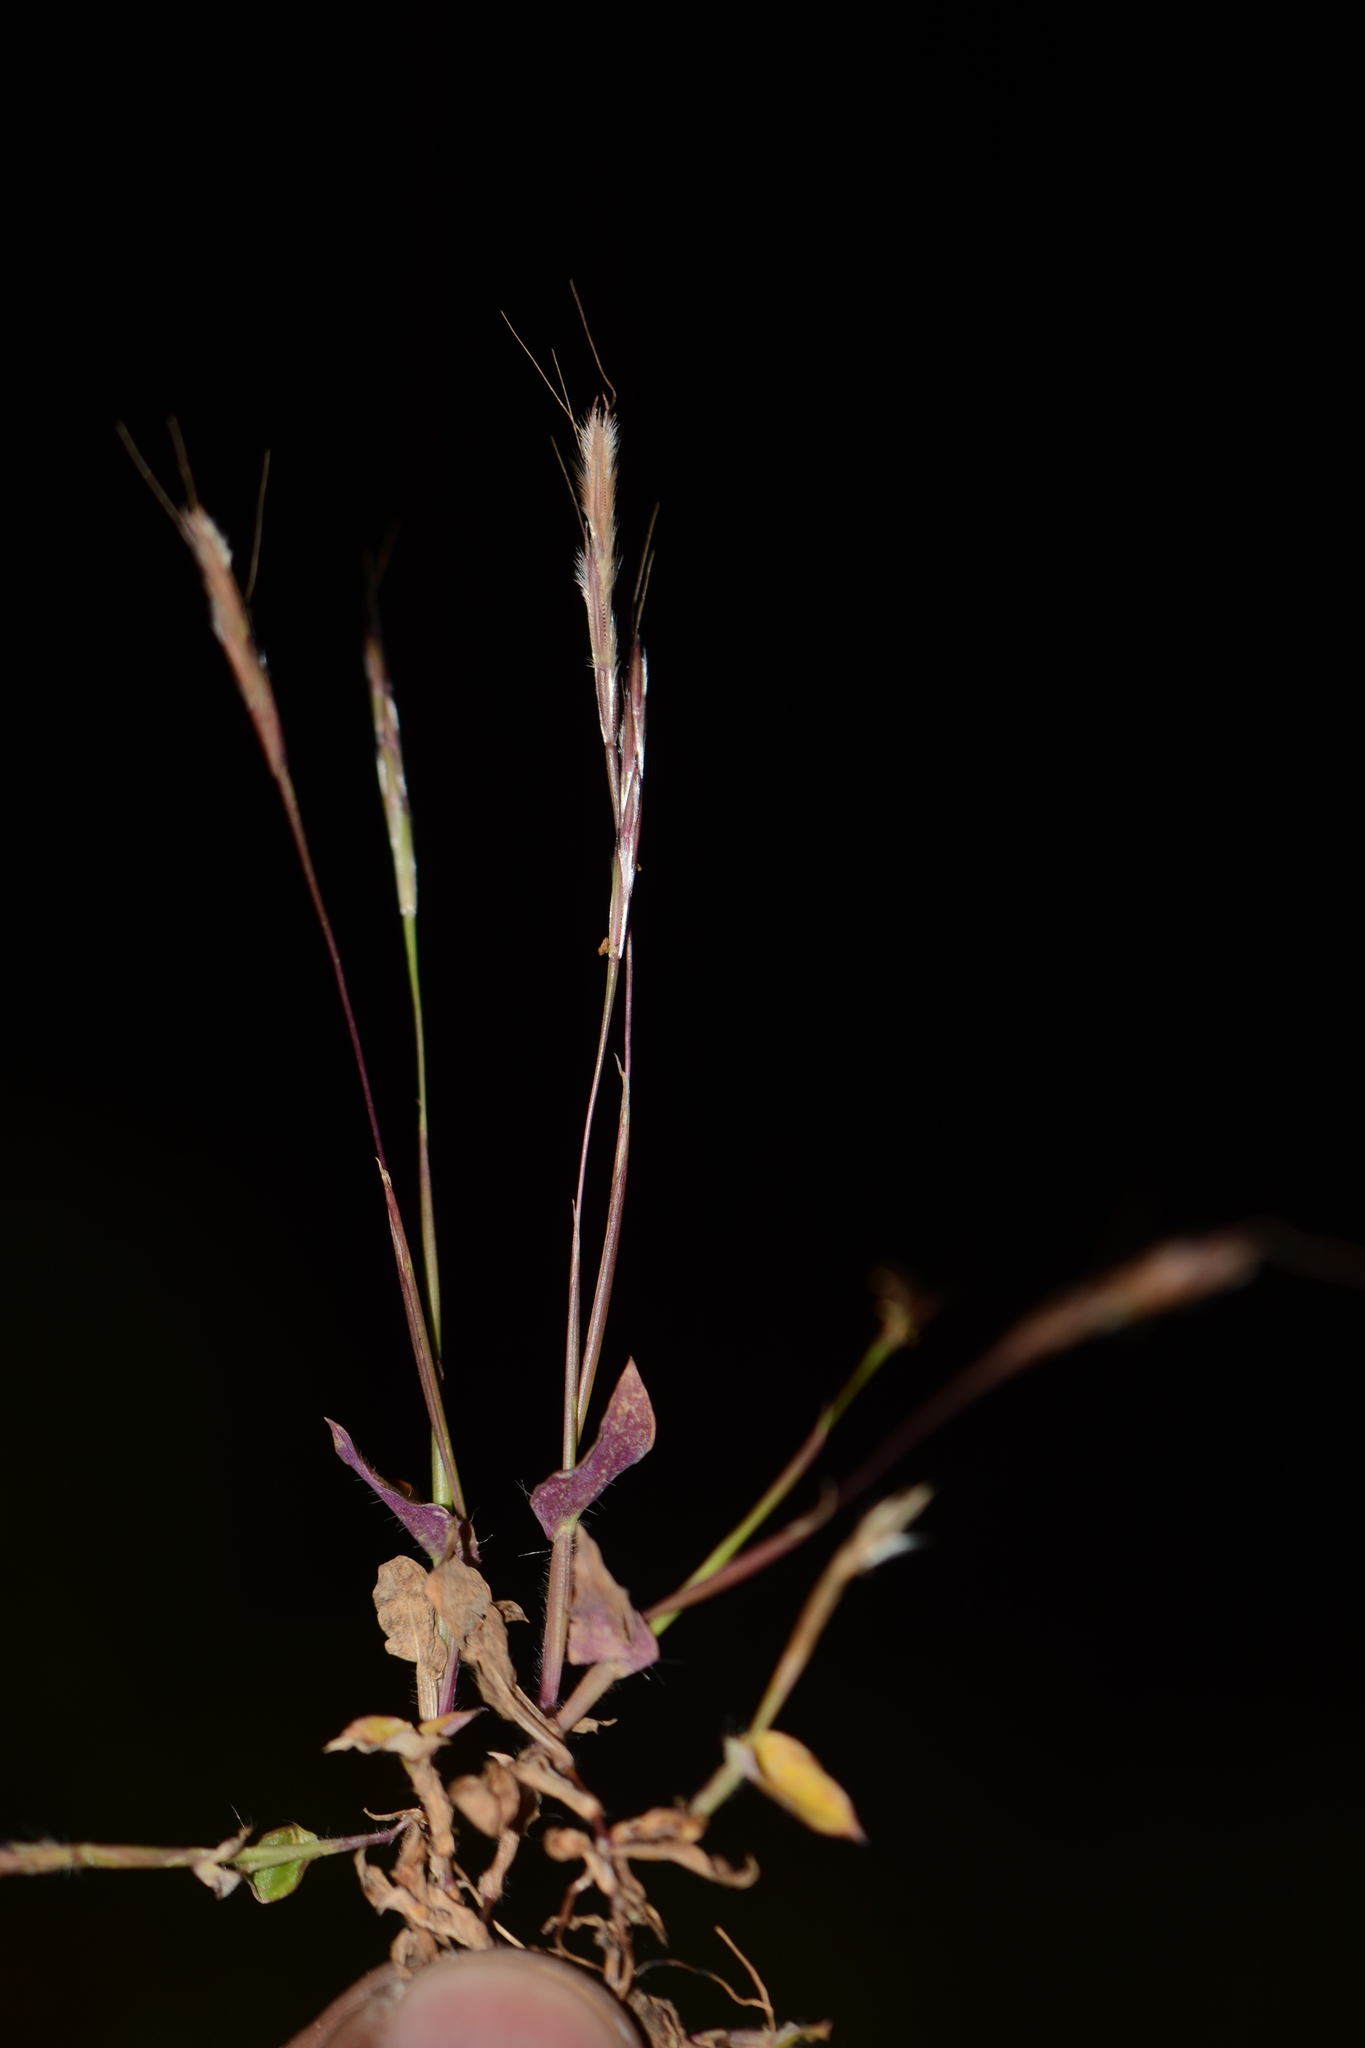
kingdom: Plantae
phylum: Tracheophyta
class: Liliopsida
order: Poales
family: Poaceae
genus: Arthraxon
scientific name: Arthraxon lanceolatus
